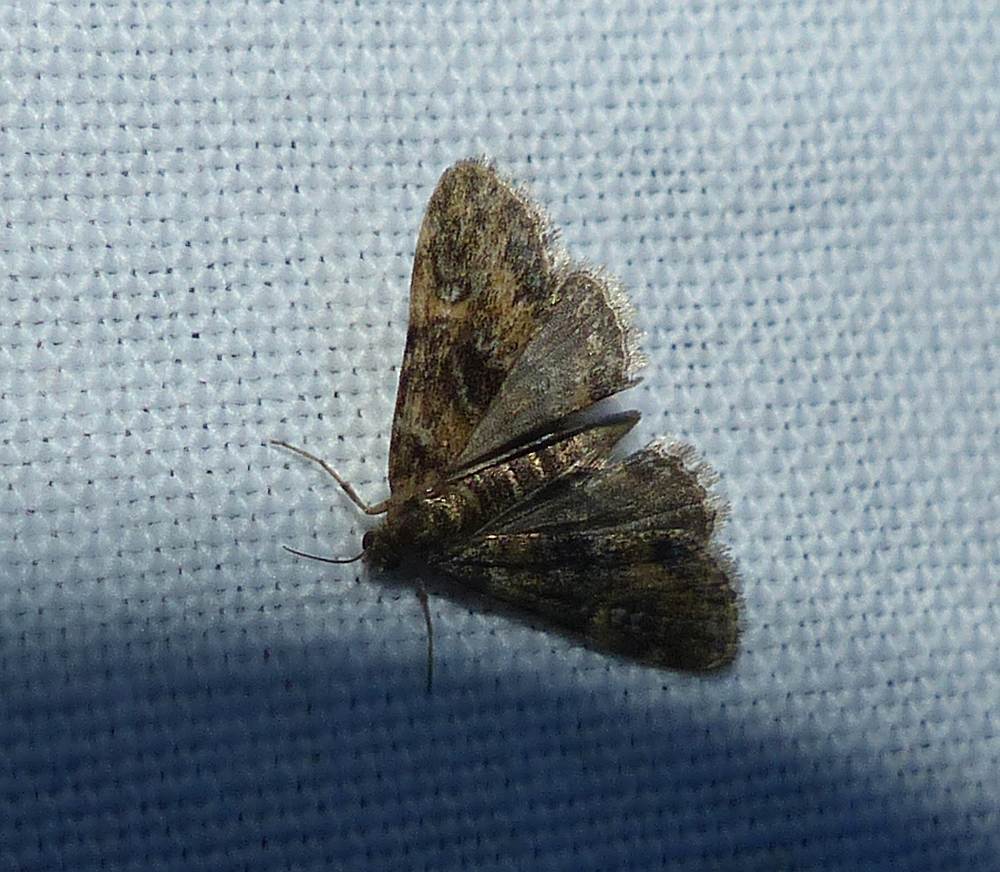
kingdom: Animalia
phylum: Arthropoda
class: Insecta
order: Lepidoptera
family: Crambidae
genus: Elophila
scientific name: Elophila obliteralis
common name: Waterlily leafcutter moth
